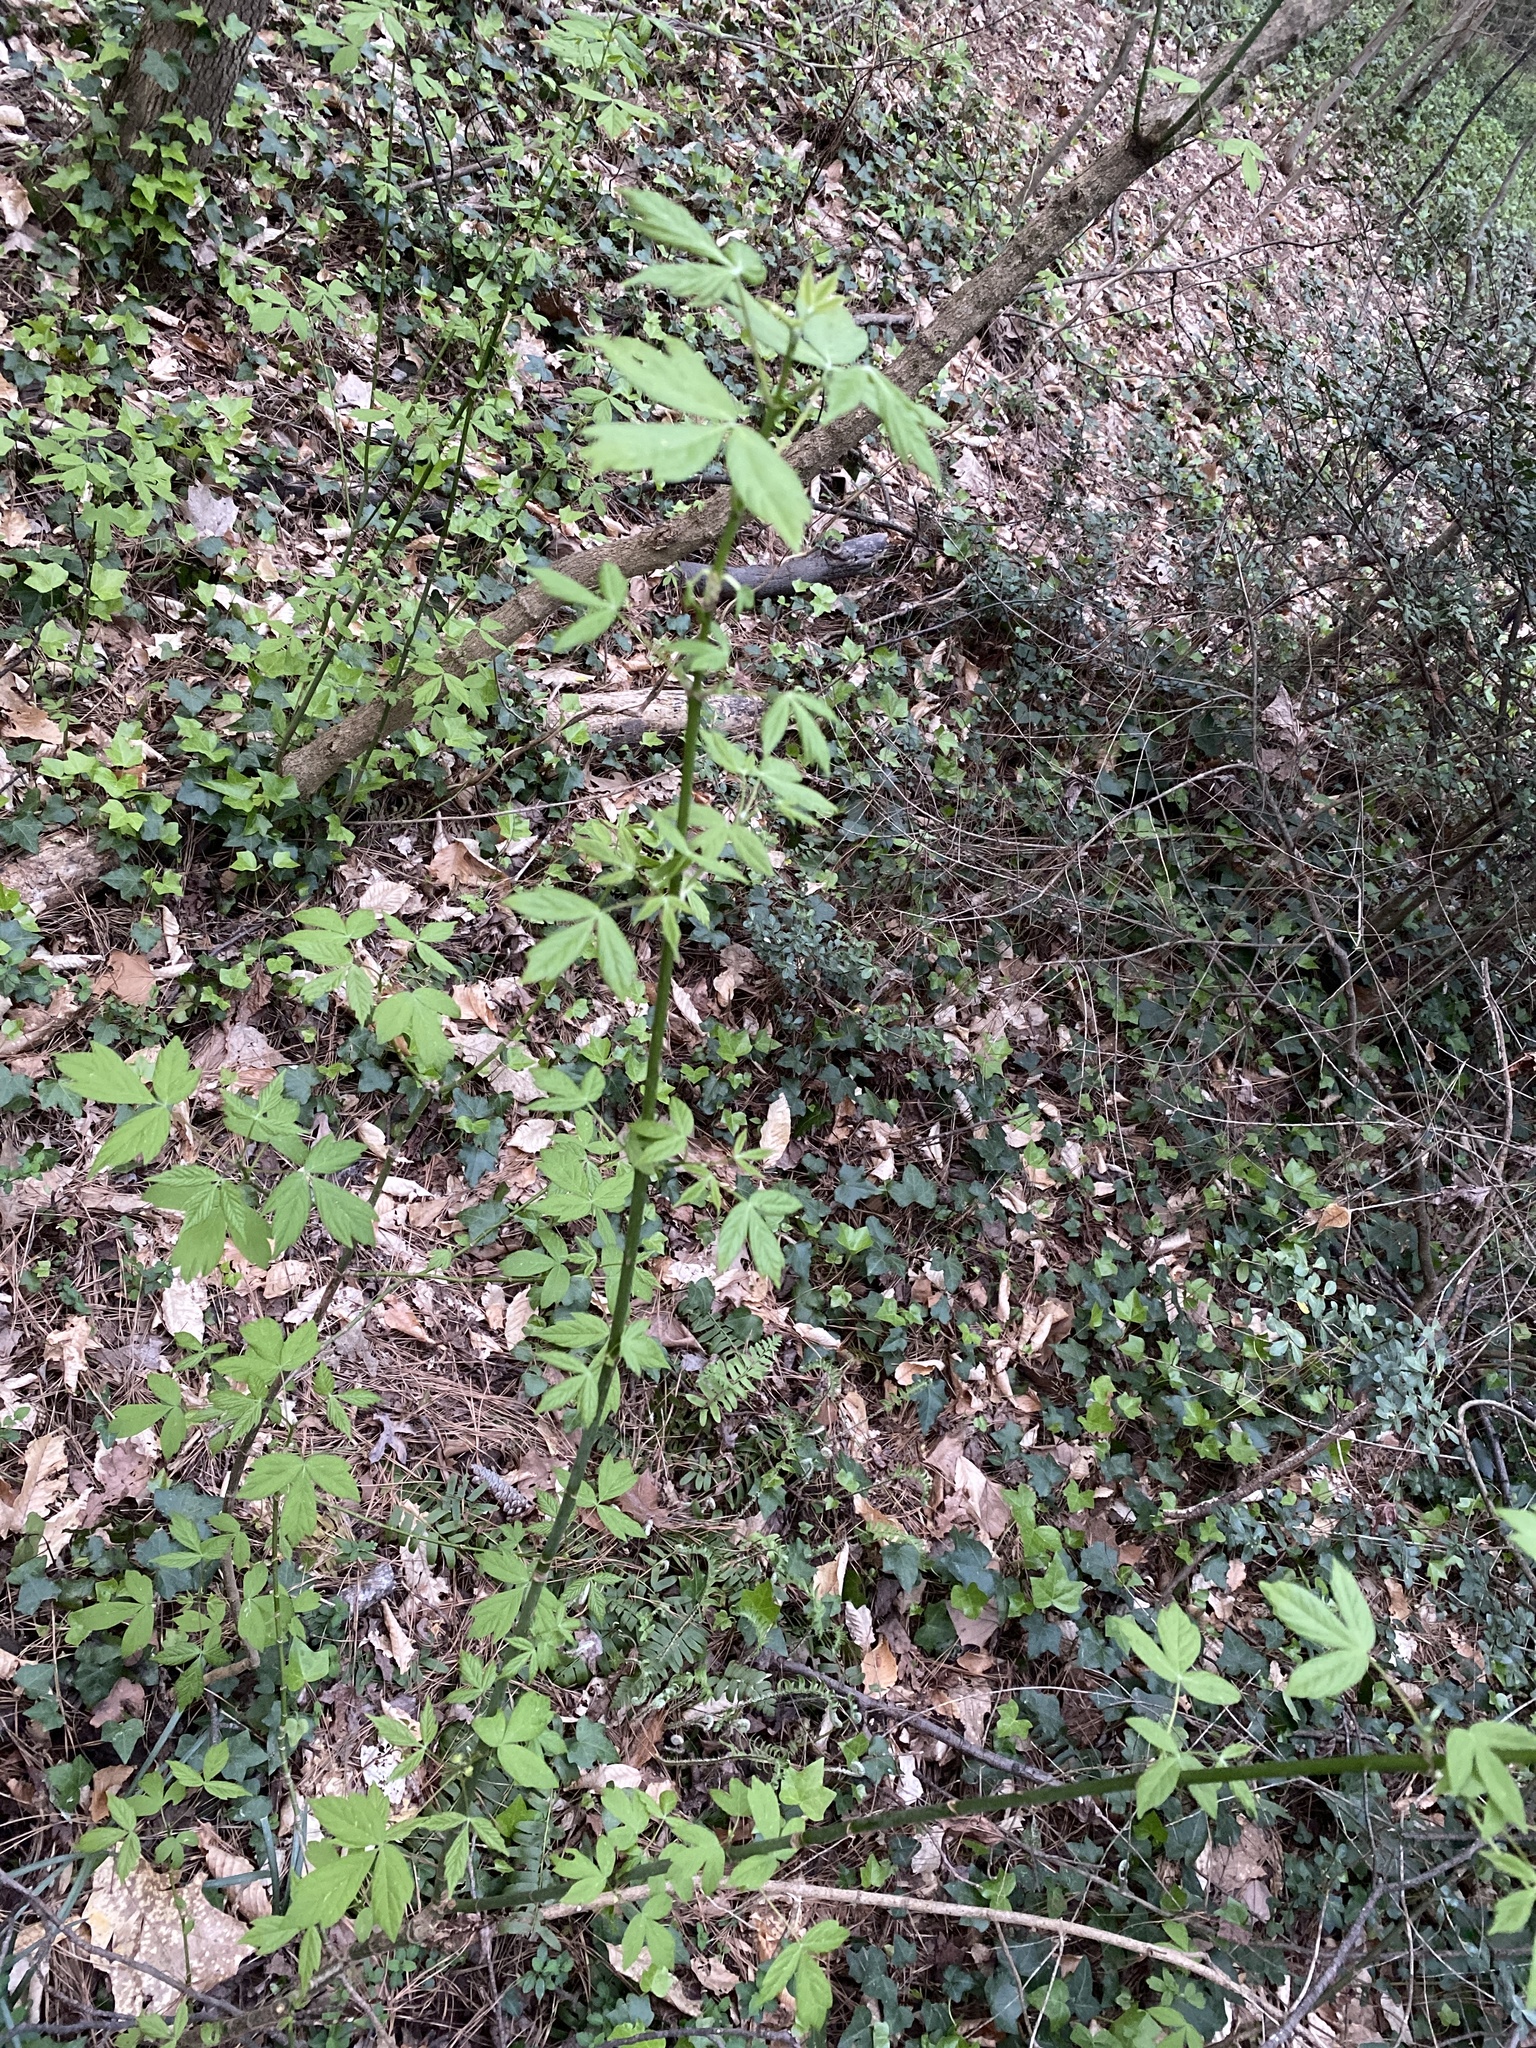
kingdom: Plantae
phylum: Tracheophyta
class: Magnoliopsida
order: Sapindales
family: Sapindaceae
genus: Acer
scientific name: Acer negundo
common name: Ashleaf maple
